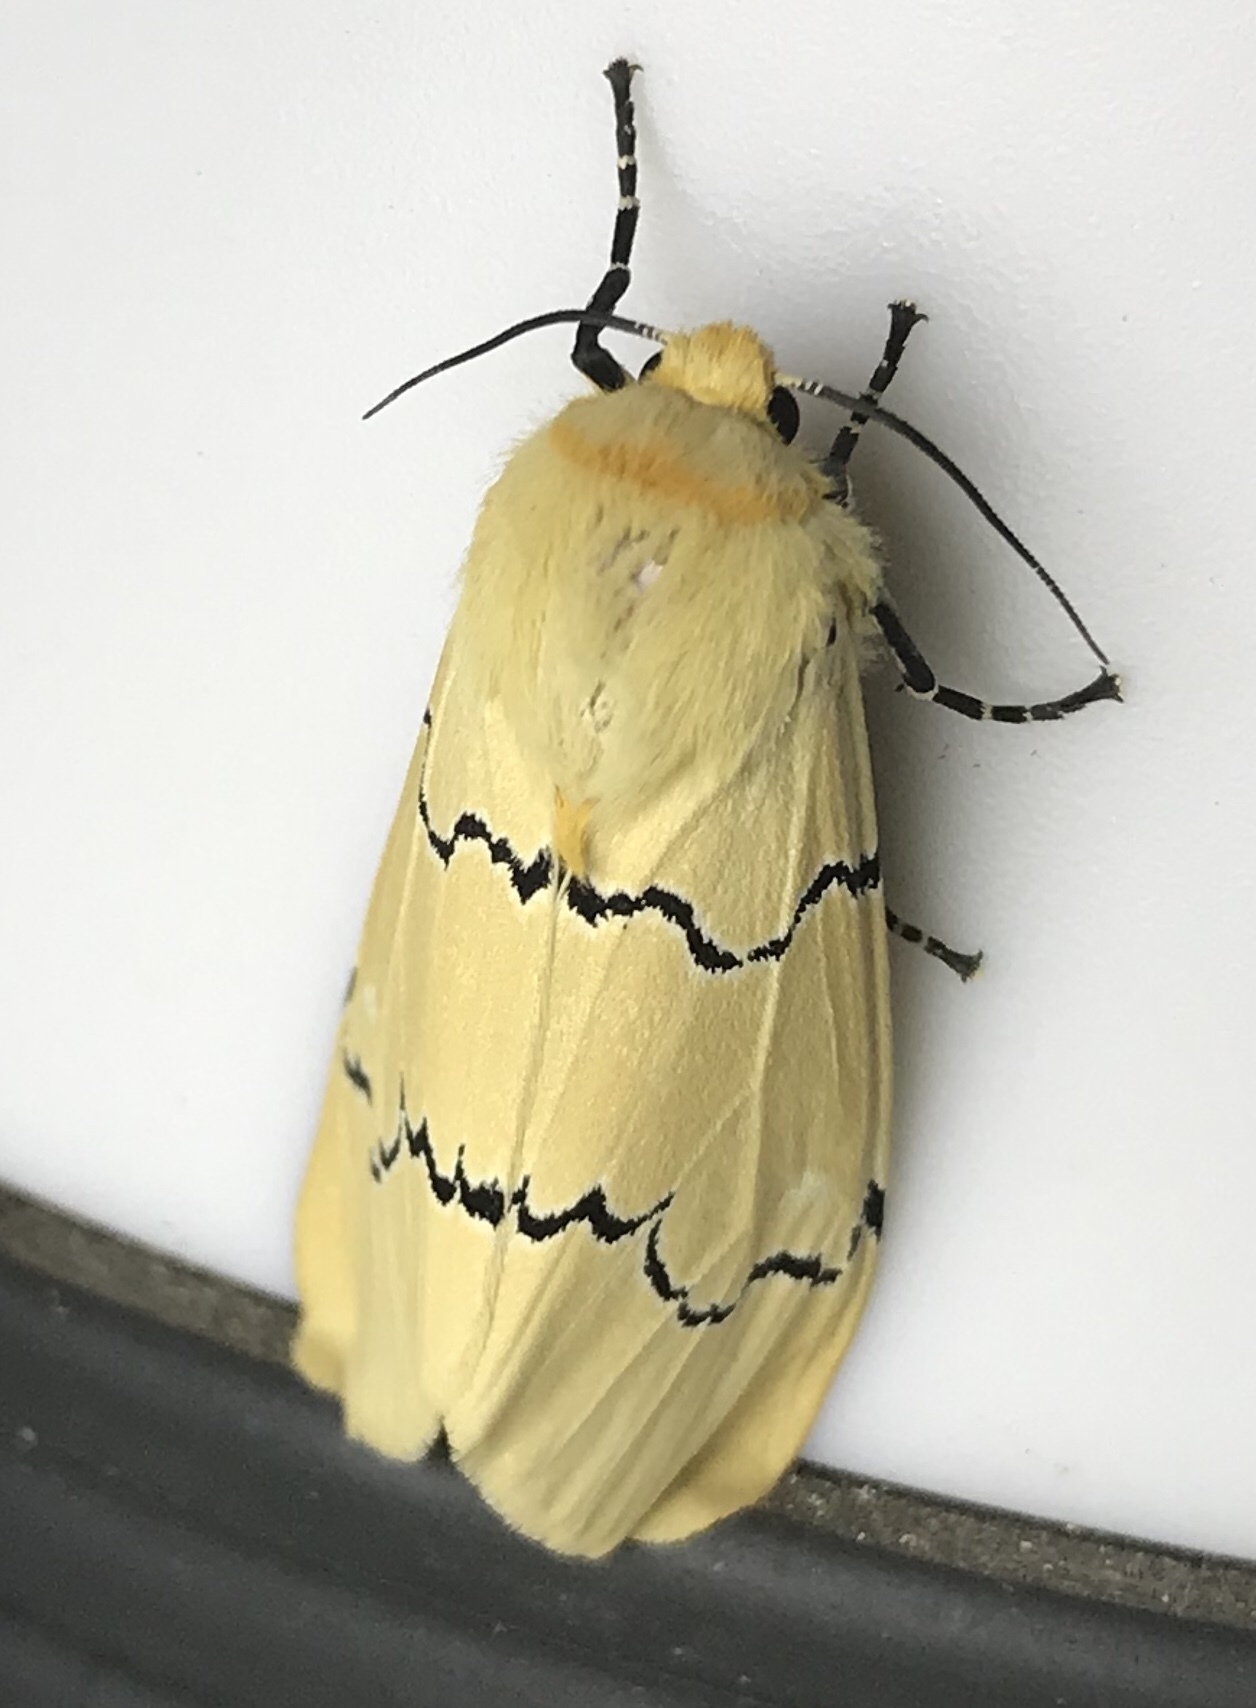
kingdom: Animalia
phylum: Arthropoda
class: Insecta
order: Lepidoptera
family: Erebidae
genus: Leucaloa
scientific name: Leucaloa eugraphica
